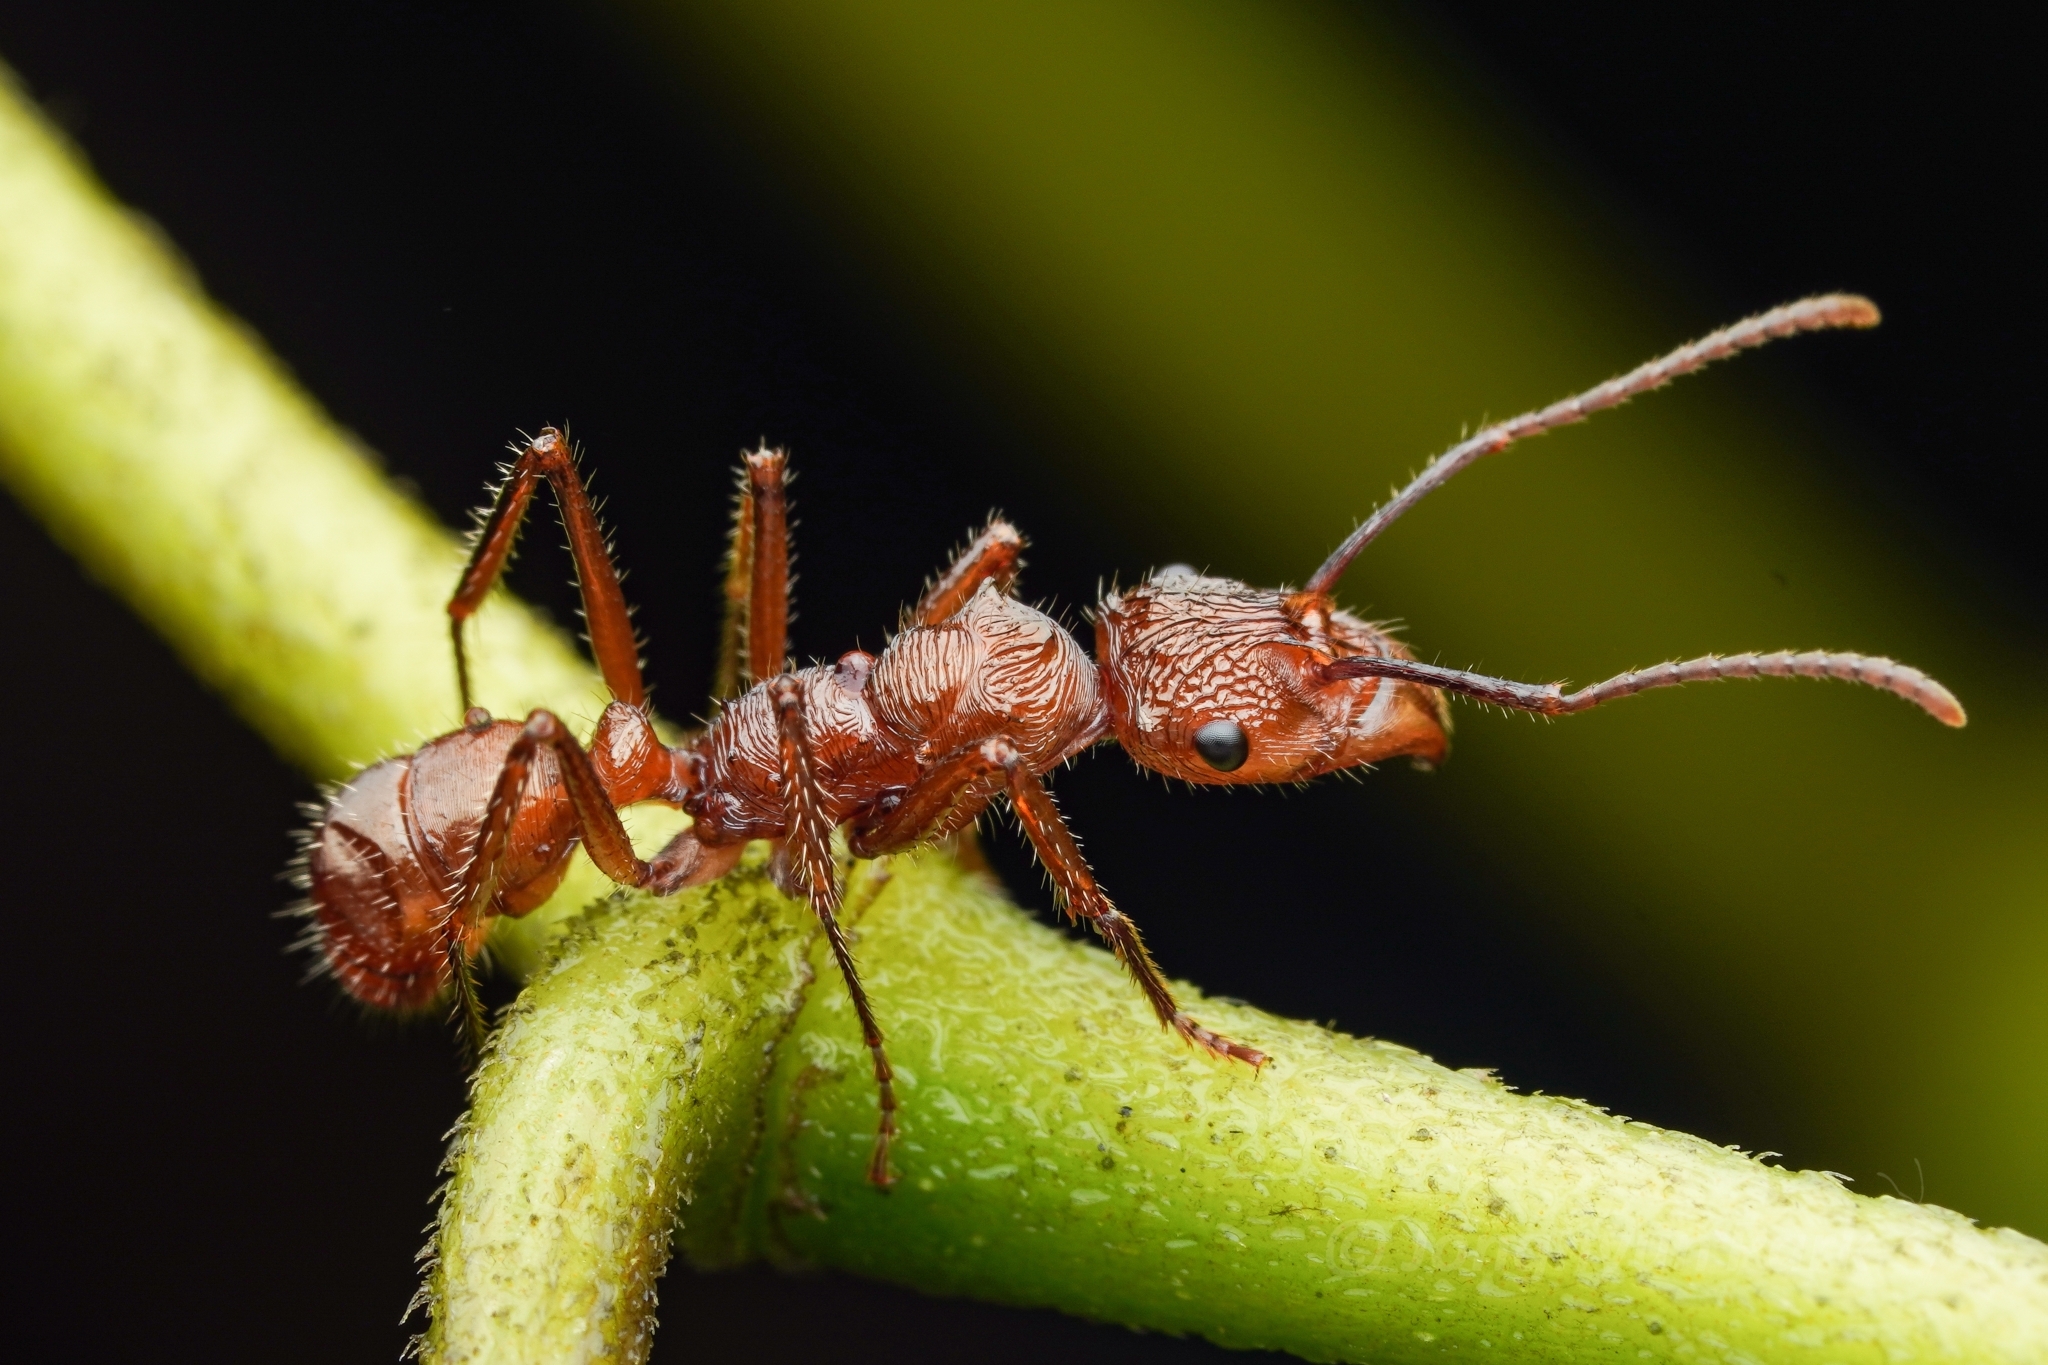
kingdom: Animalia
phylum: Arthropoda
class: Insecta
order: Hymenoptera
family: Formicidae
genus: Ectatomma
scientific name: Ectatomma tuberculatum
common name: Ant
